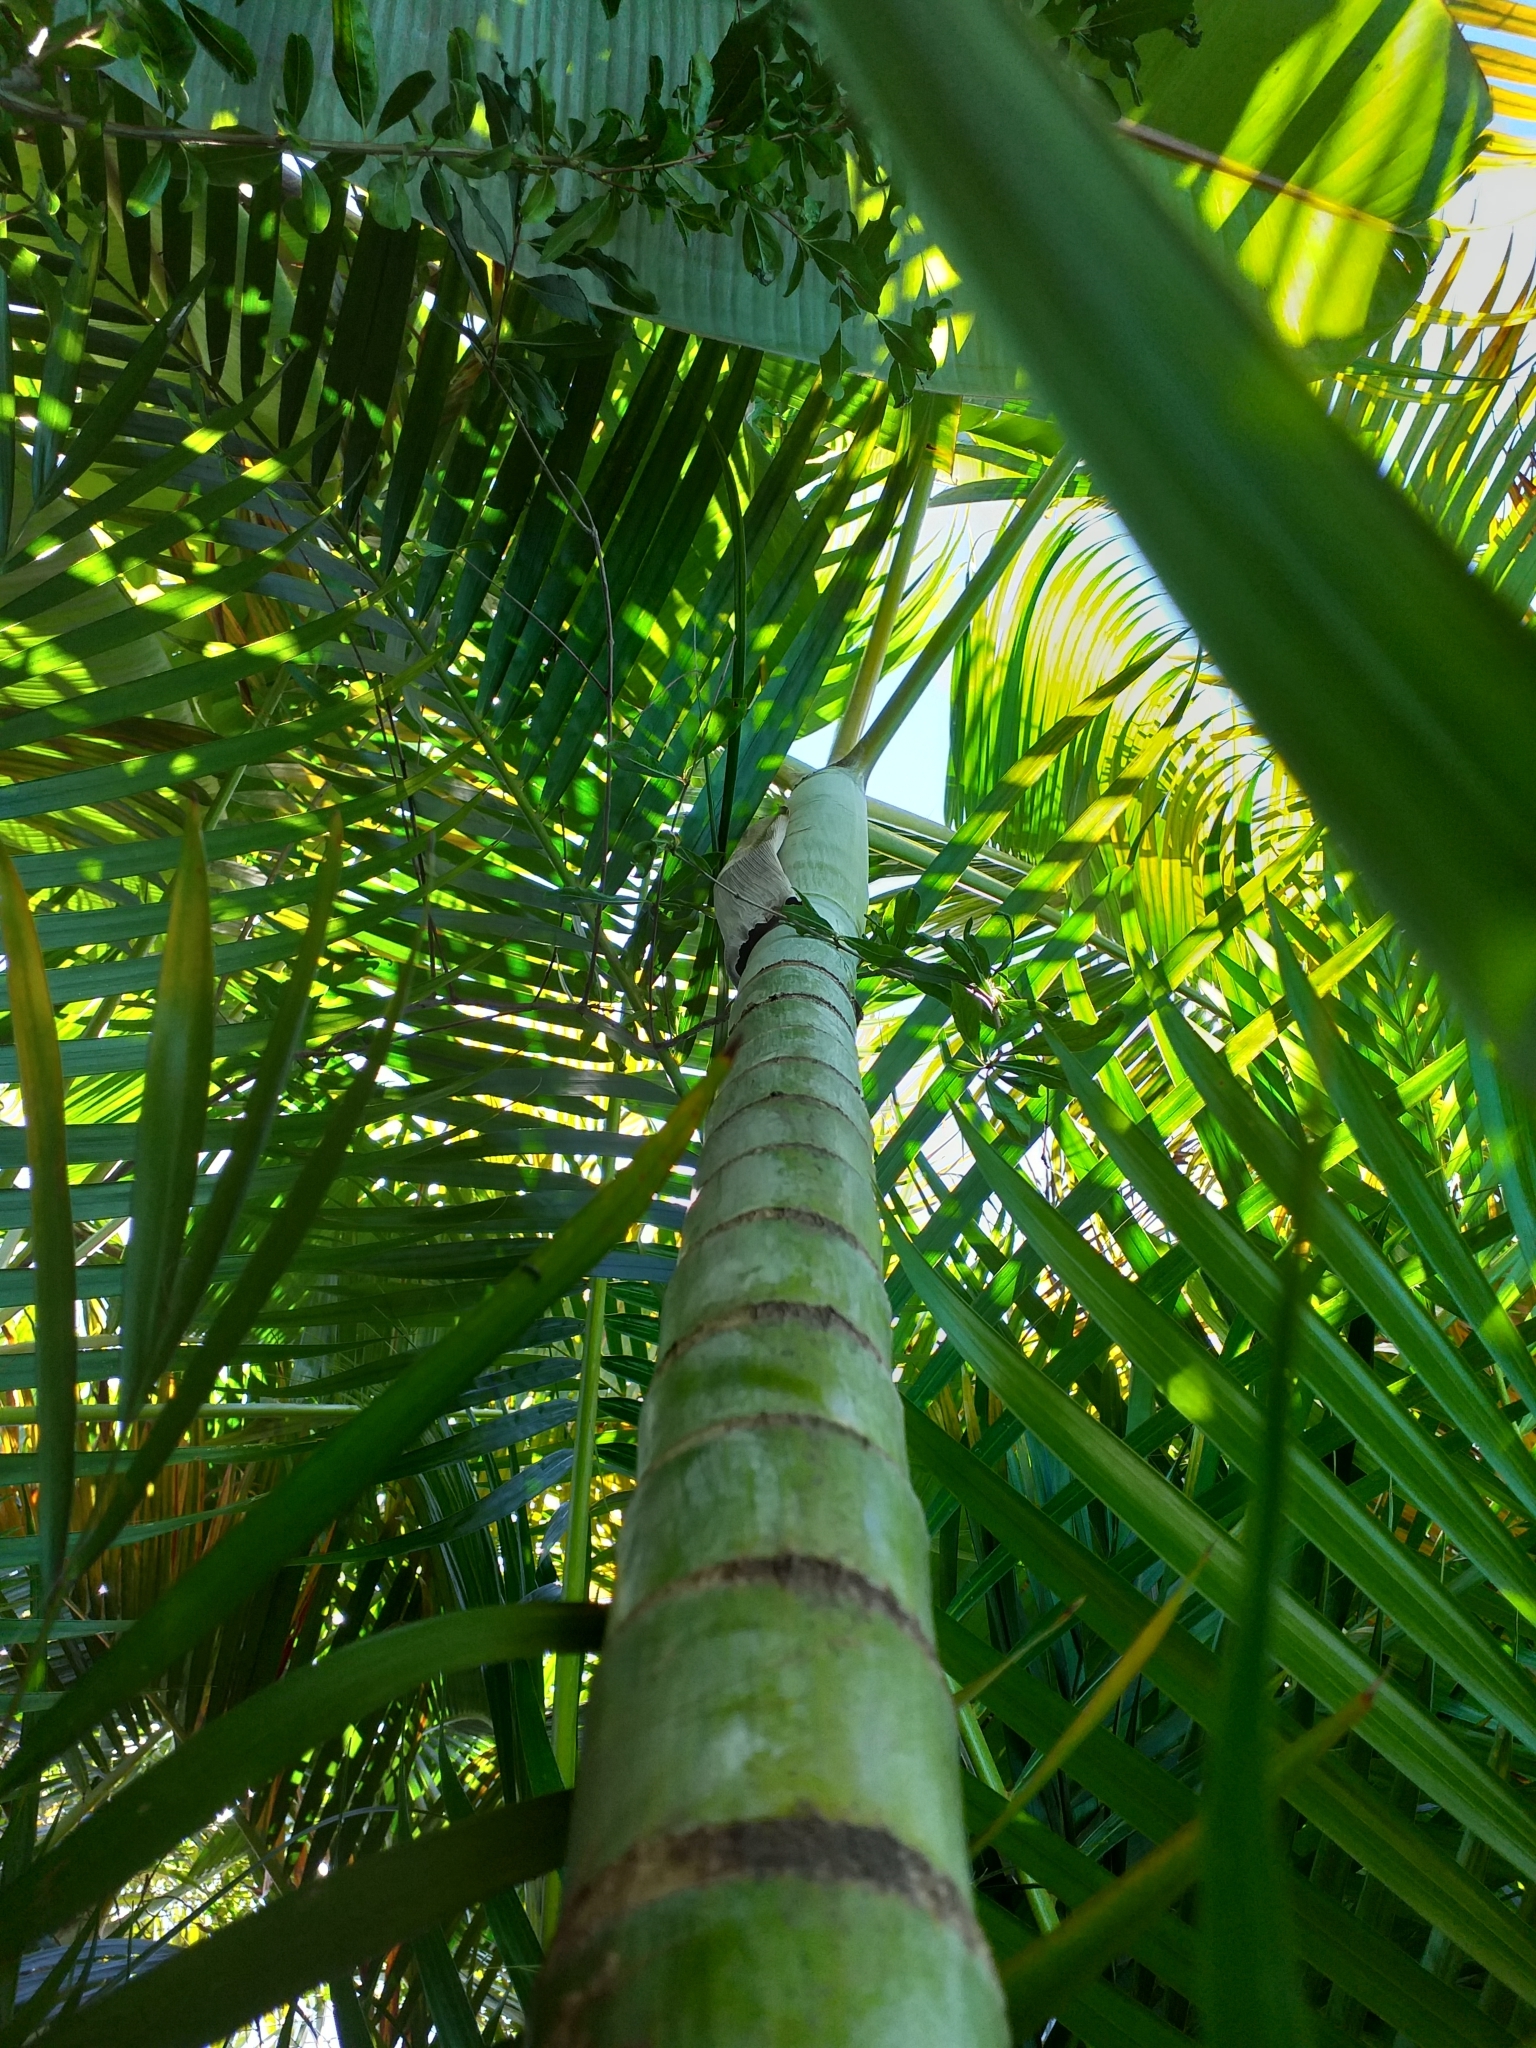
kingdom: Plantae
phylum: Tracheophyta
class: Liliopsida
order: Arecales
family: Arecaceae
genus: Dypsis
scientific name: Dypsis lutescens
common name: Yellow butterfly palm
